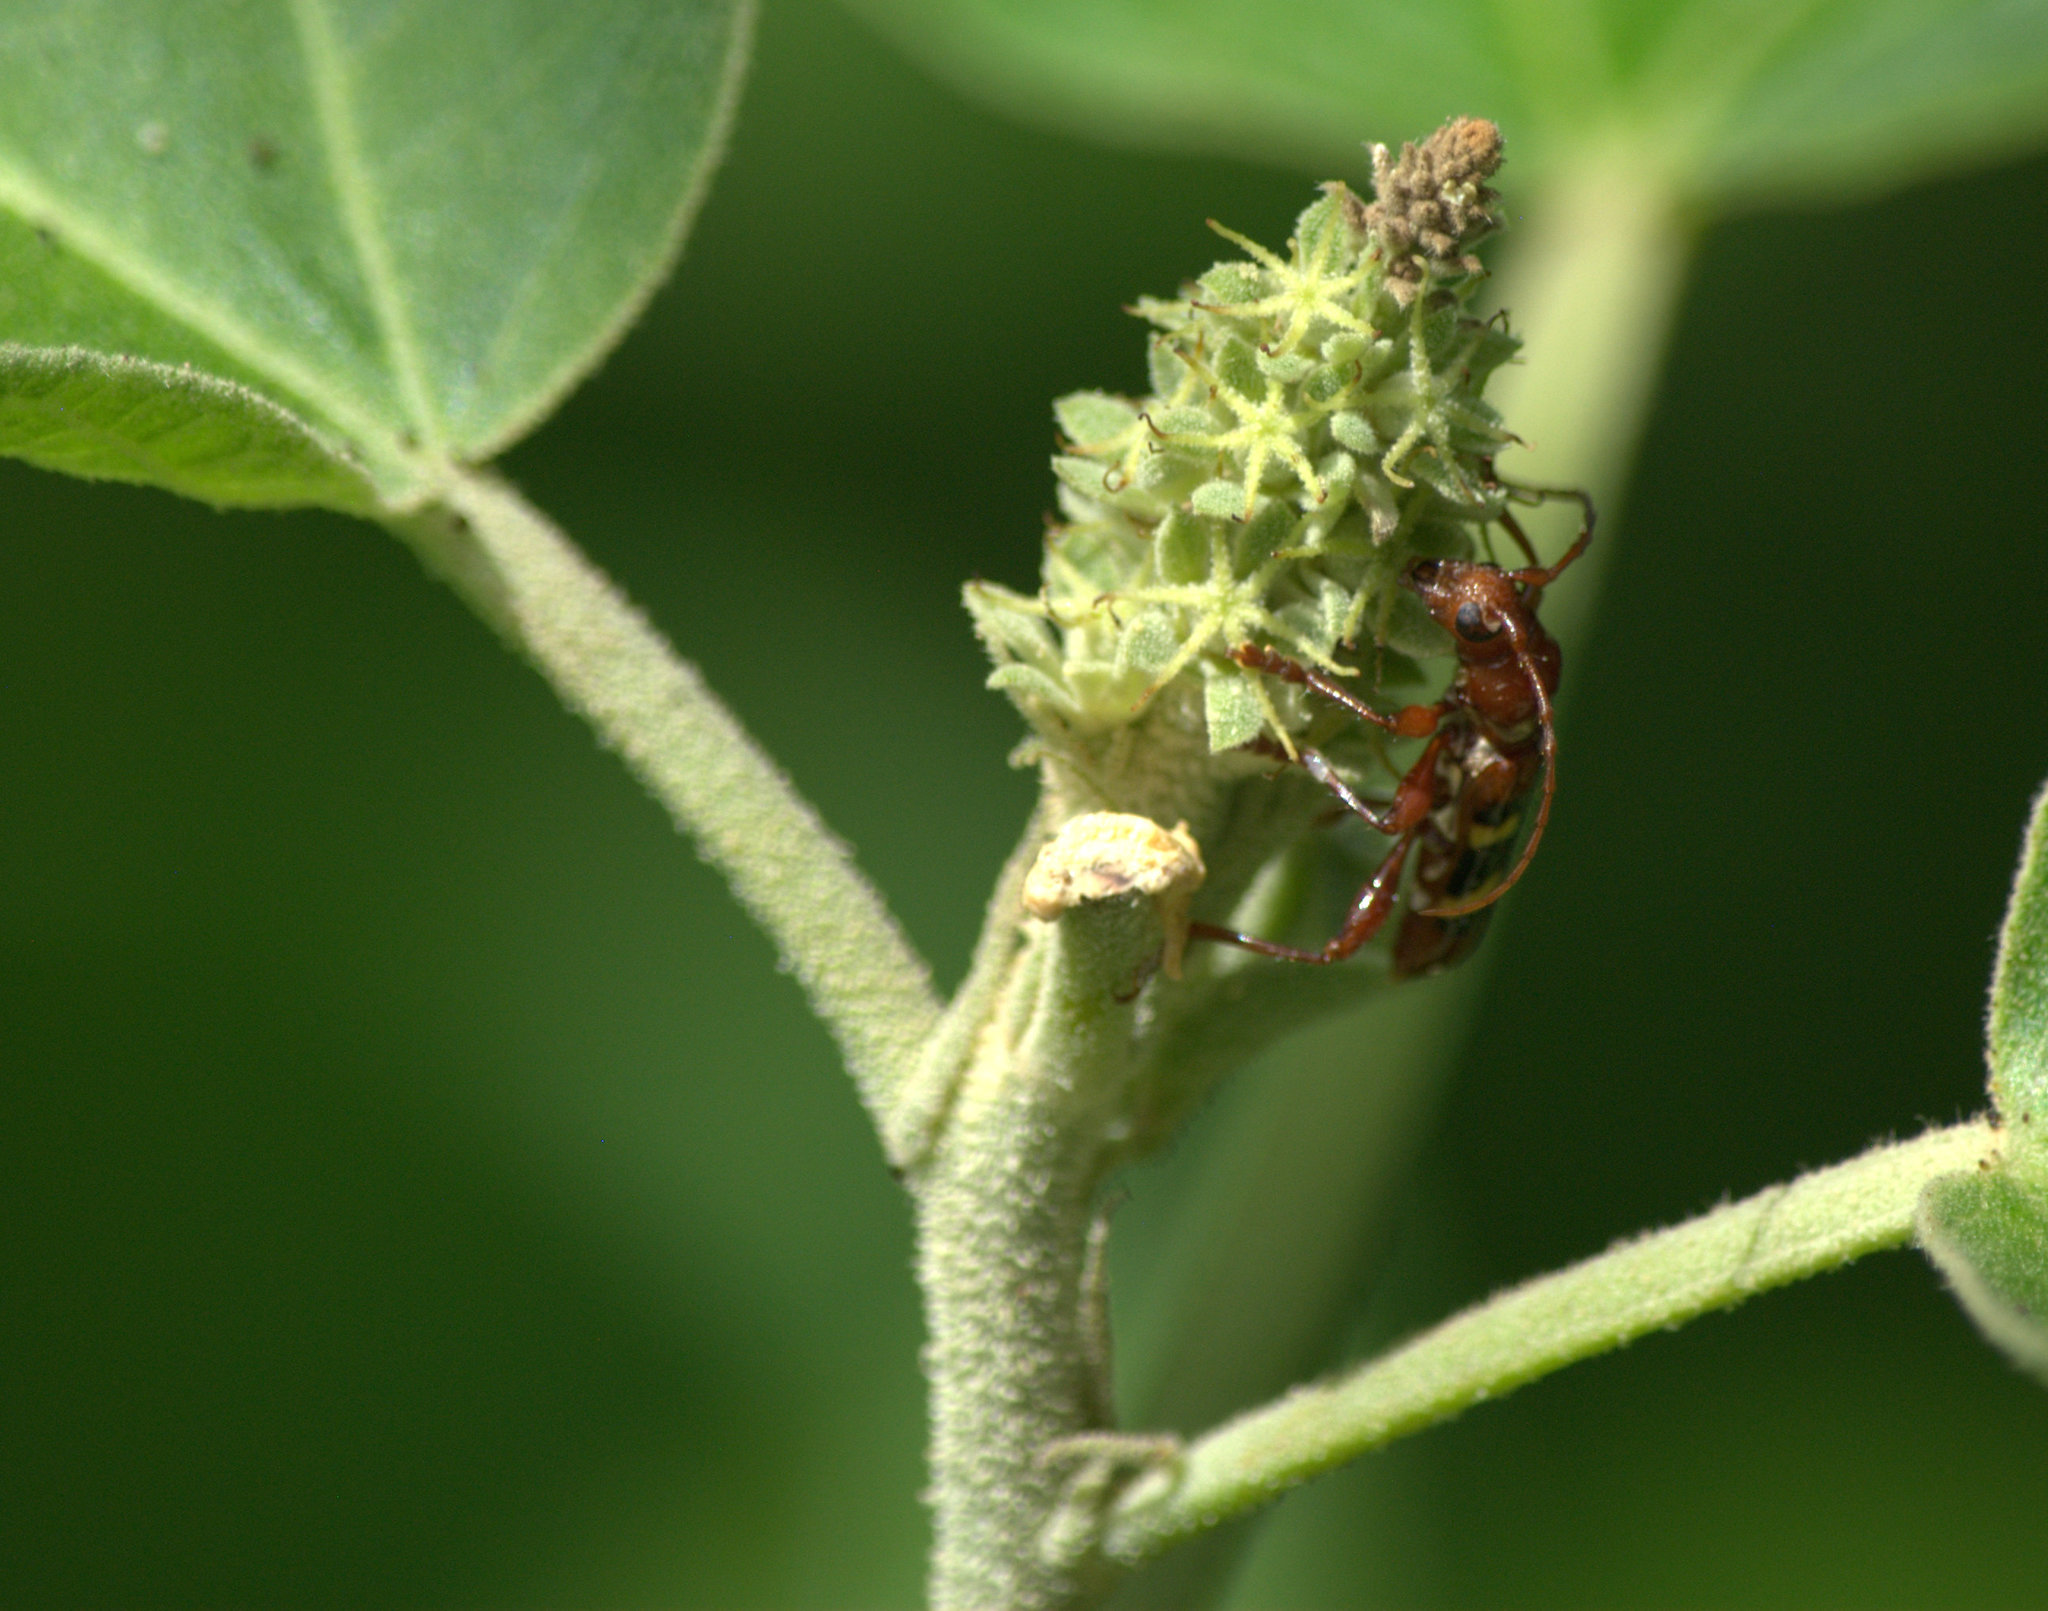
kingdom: Animalia
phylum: Arthropoda
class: Insecta
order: Coleoptera
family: Cerambycidae
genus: Stenygra
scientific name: Stenygra histrio
